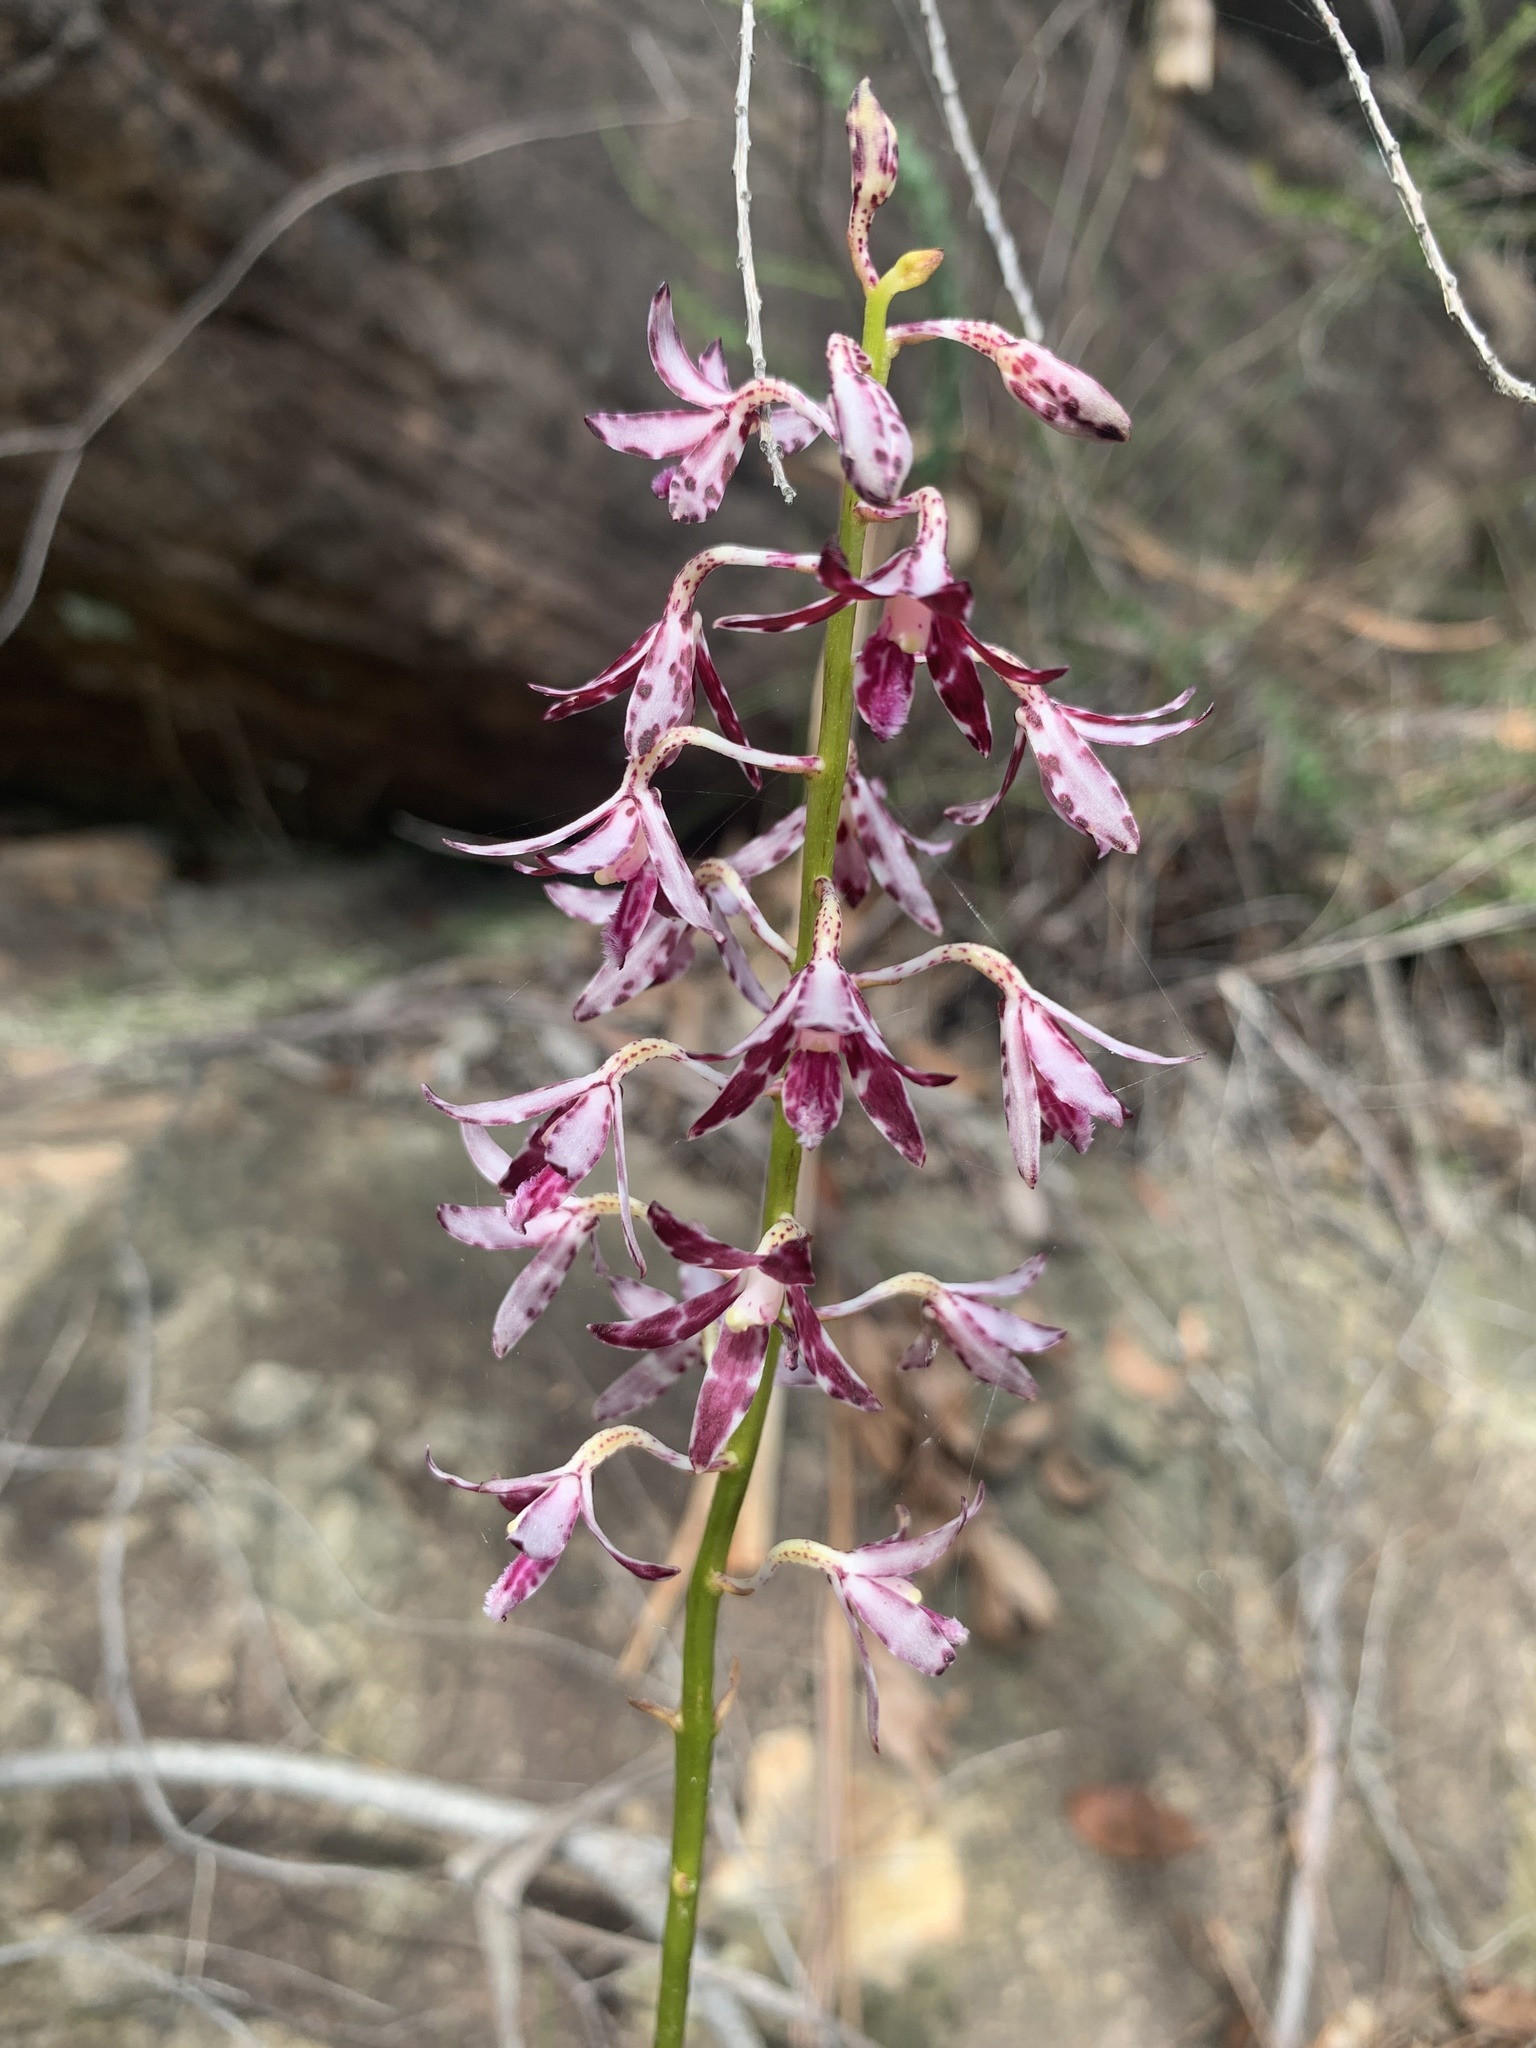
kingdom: Plantae
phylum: Tracheophyta
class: Liliopsida
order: Asparagales
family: Orchidaceae
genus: Dipodium
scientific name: Dipodium variegatum
